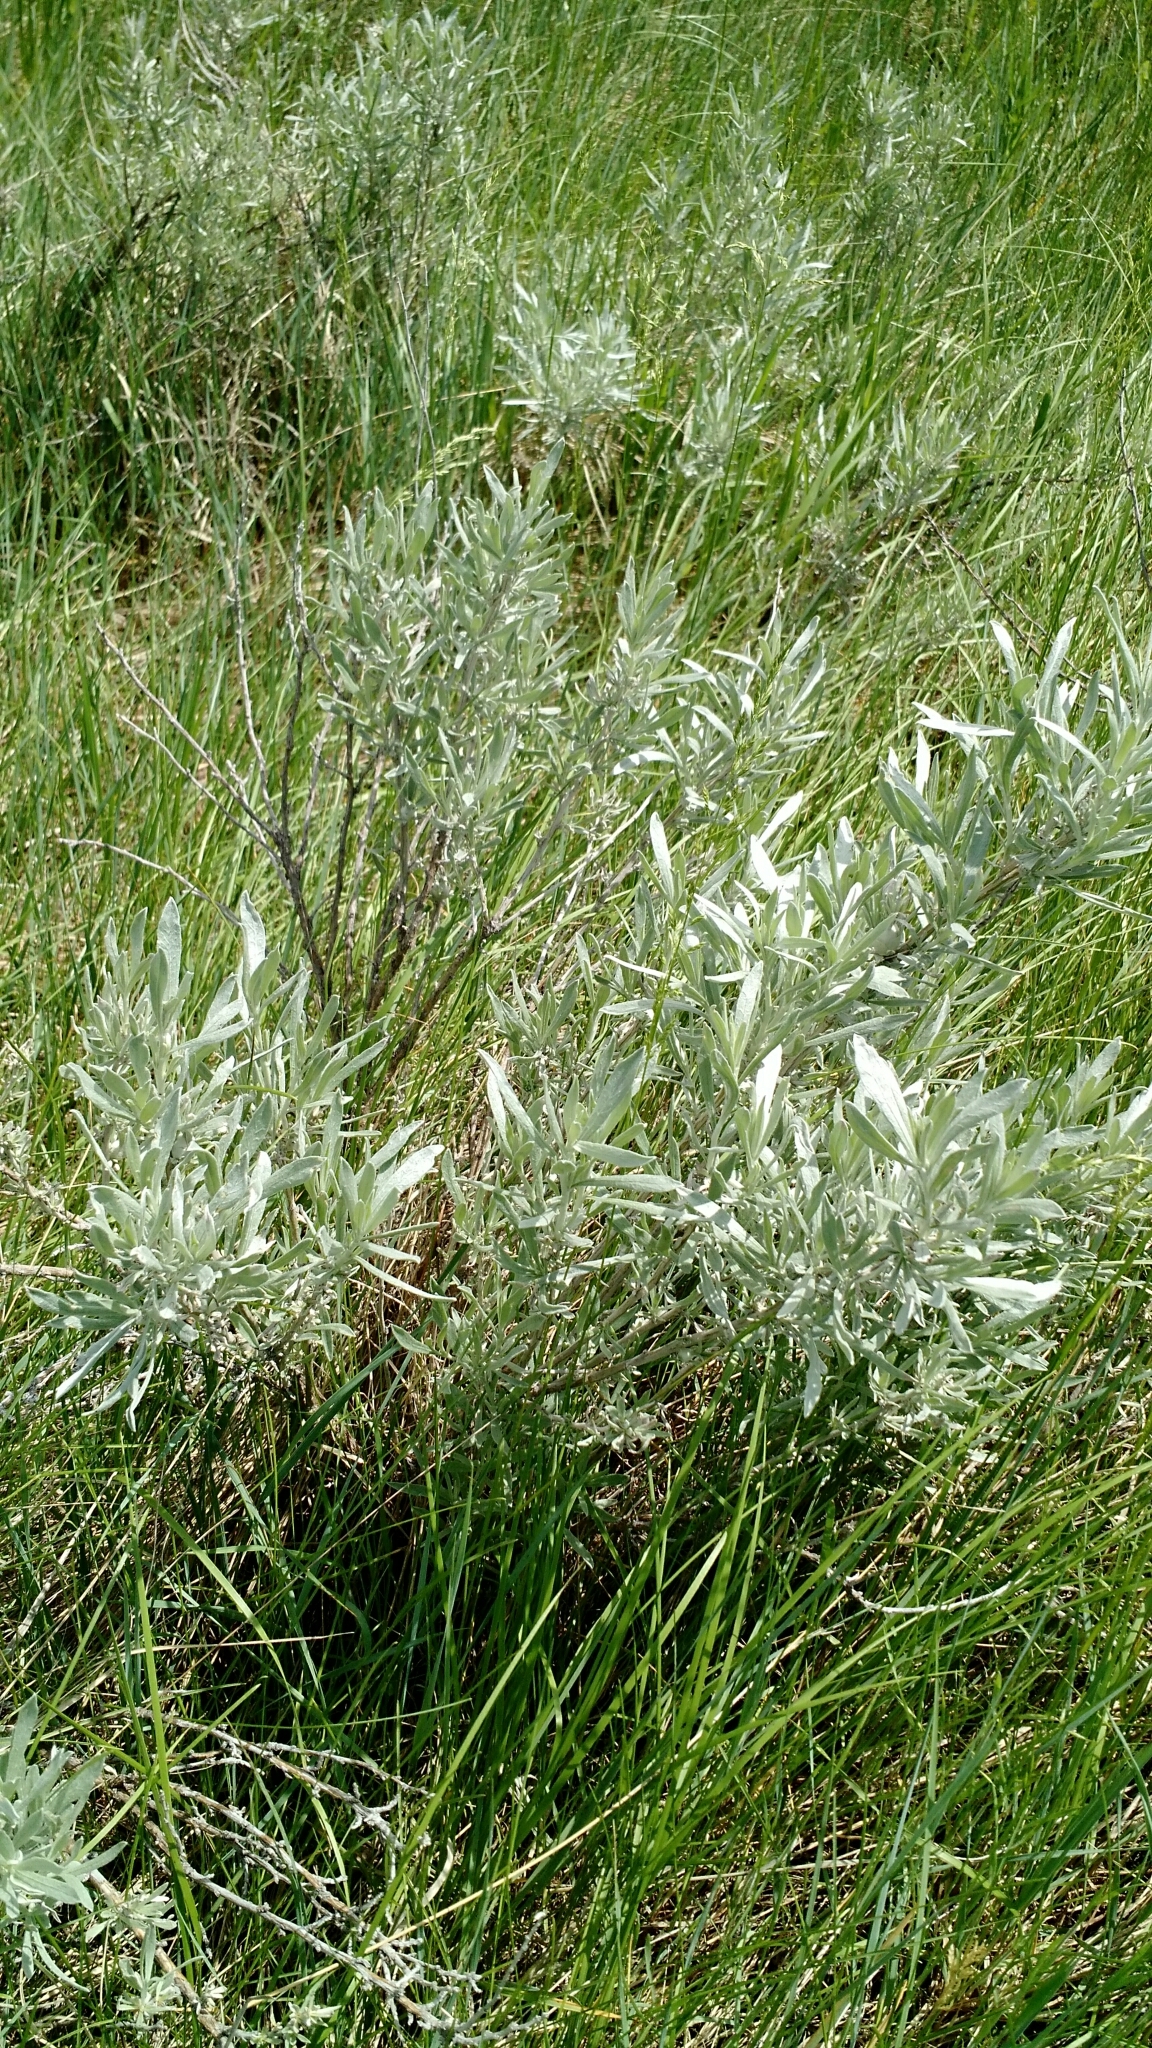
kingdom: Plantae
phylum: Tracheophyta
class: Magnoliopsida
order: Asterales
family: Asteraceae
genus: Artemisia
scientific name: Artemisia ludoviciana
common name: Western mugwort
